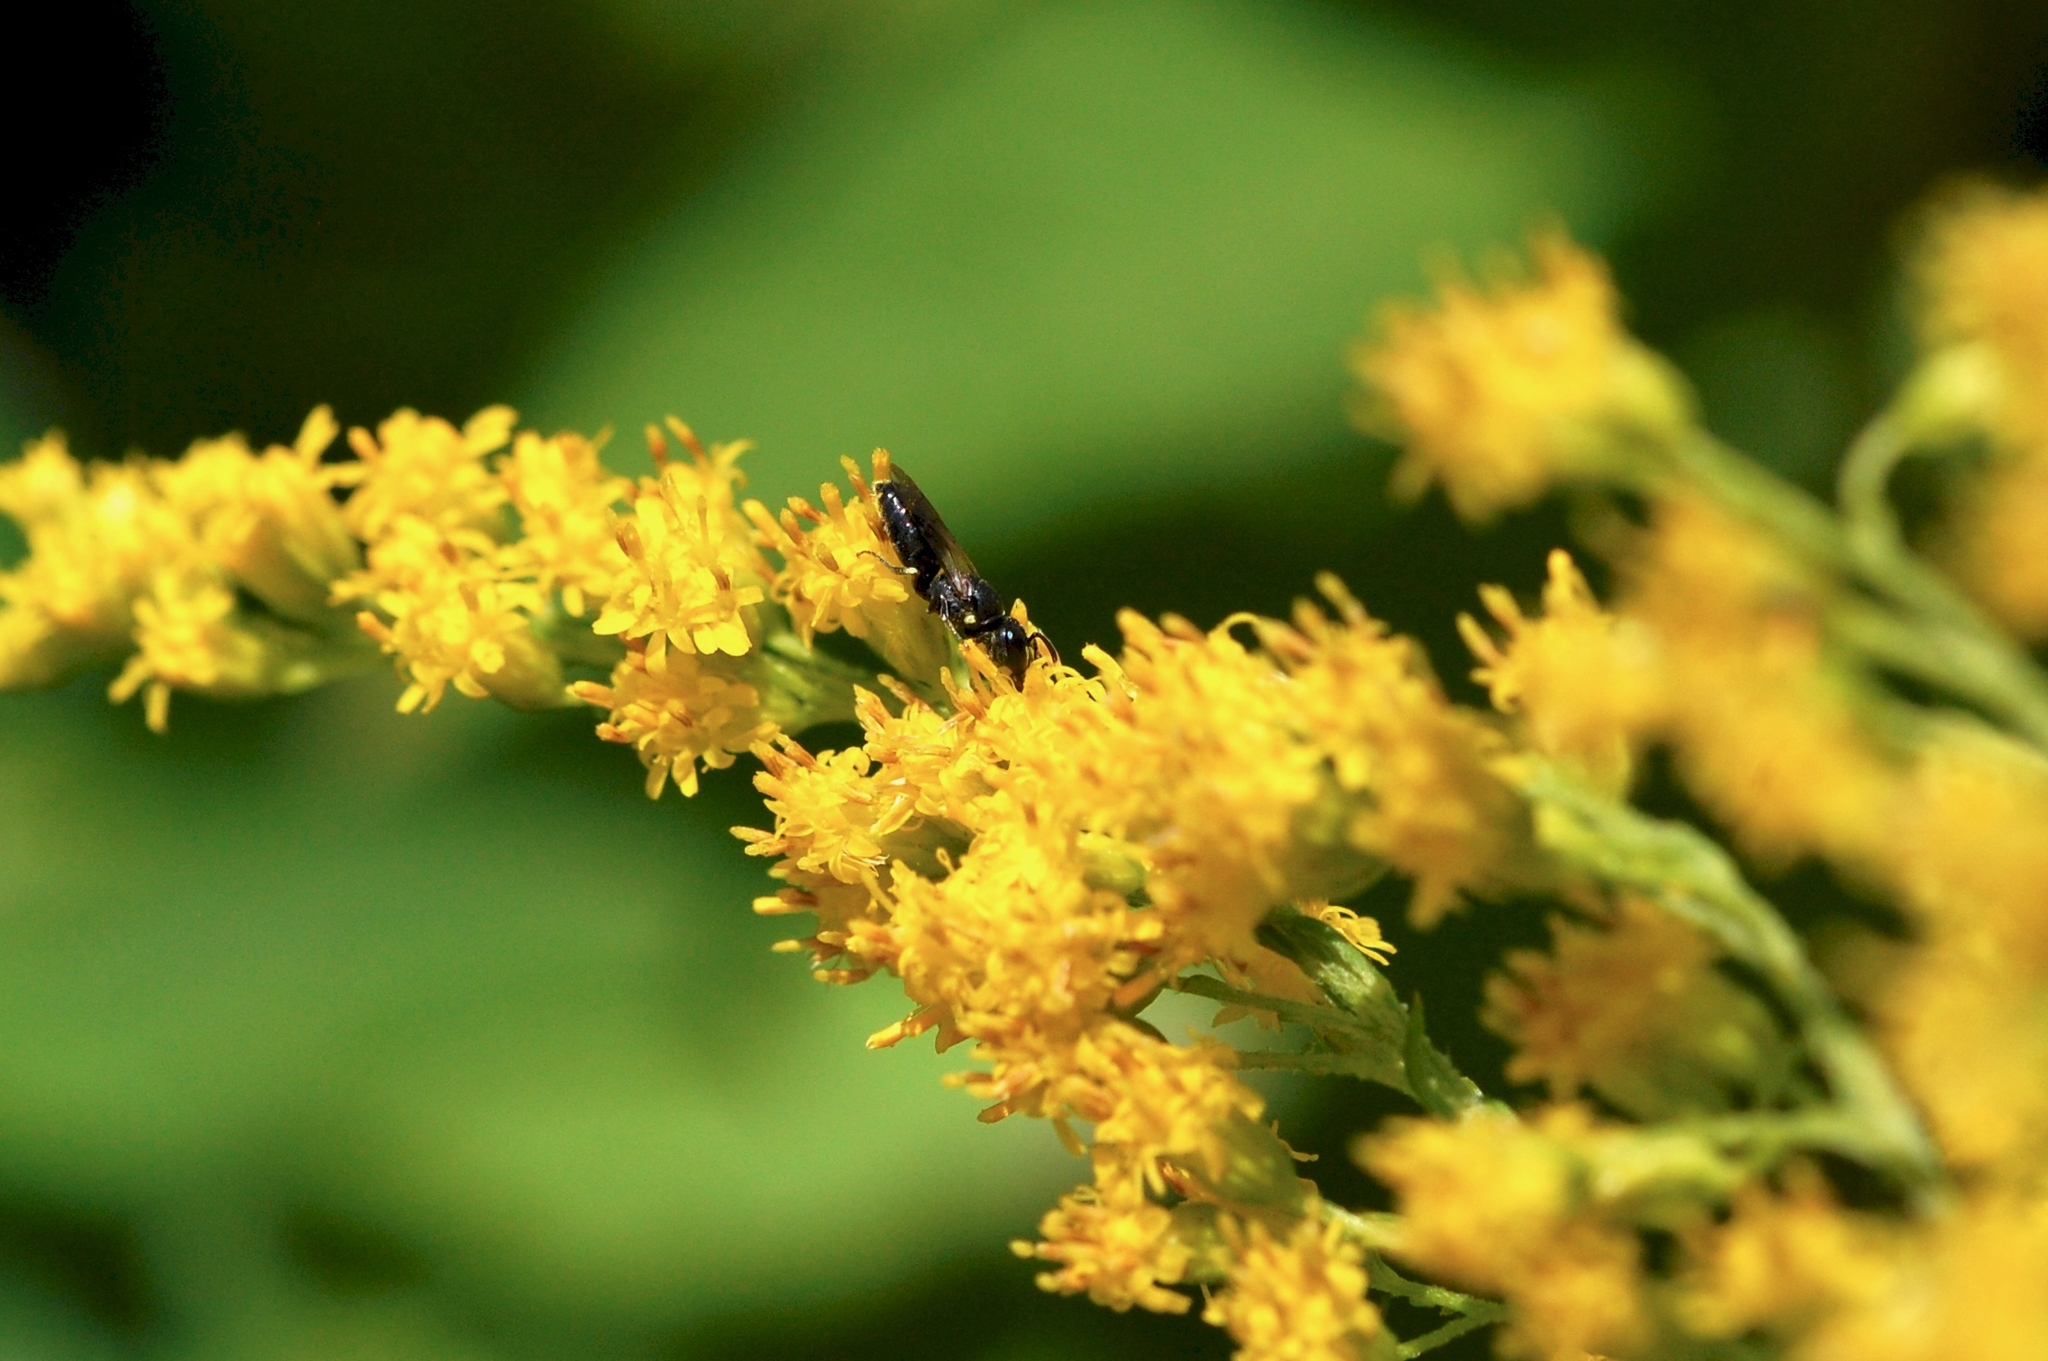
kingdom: Animalia
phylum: Arthropoda
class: Insecta
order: Hymenoptera
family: Colletidae
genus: Hylaeus
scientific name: Hylaeus mesillae
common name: Mesilla masked bee
